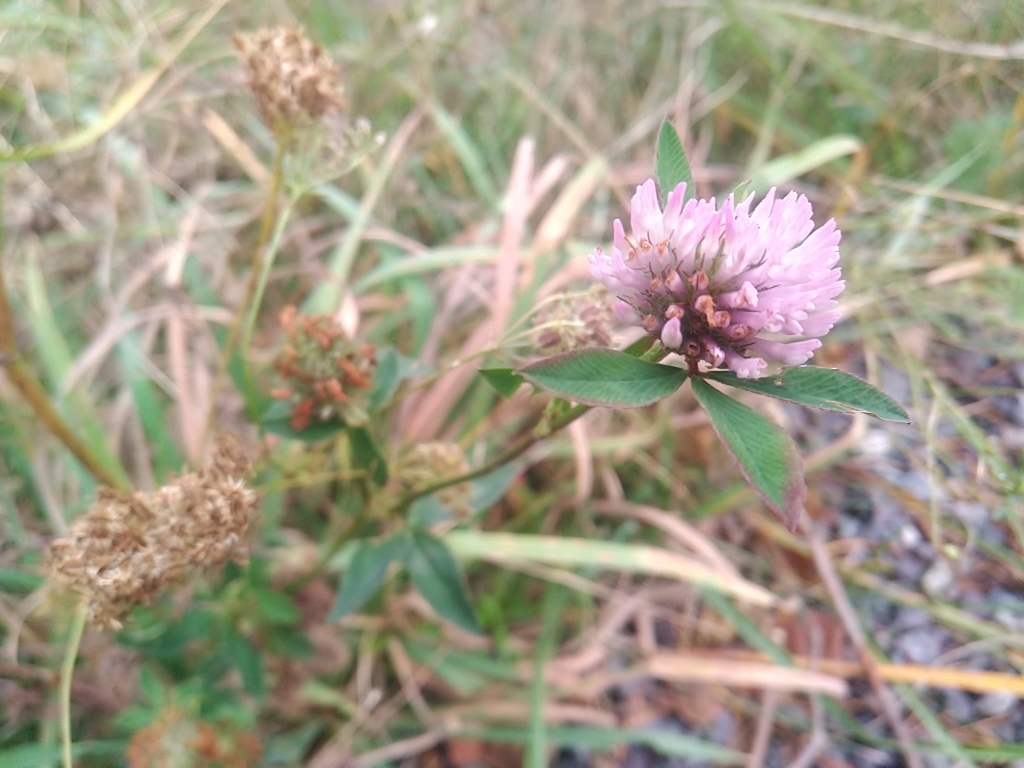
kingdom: Plantae
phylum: Tracheophyta
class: Magnoliopsida
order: Fabales
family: Fabaceae
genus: Trifolium
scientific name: Trifolium pratense
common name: Red clover
